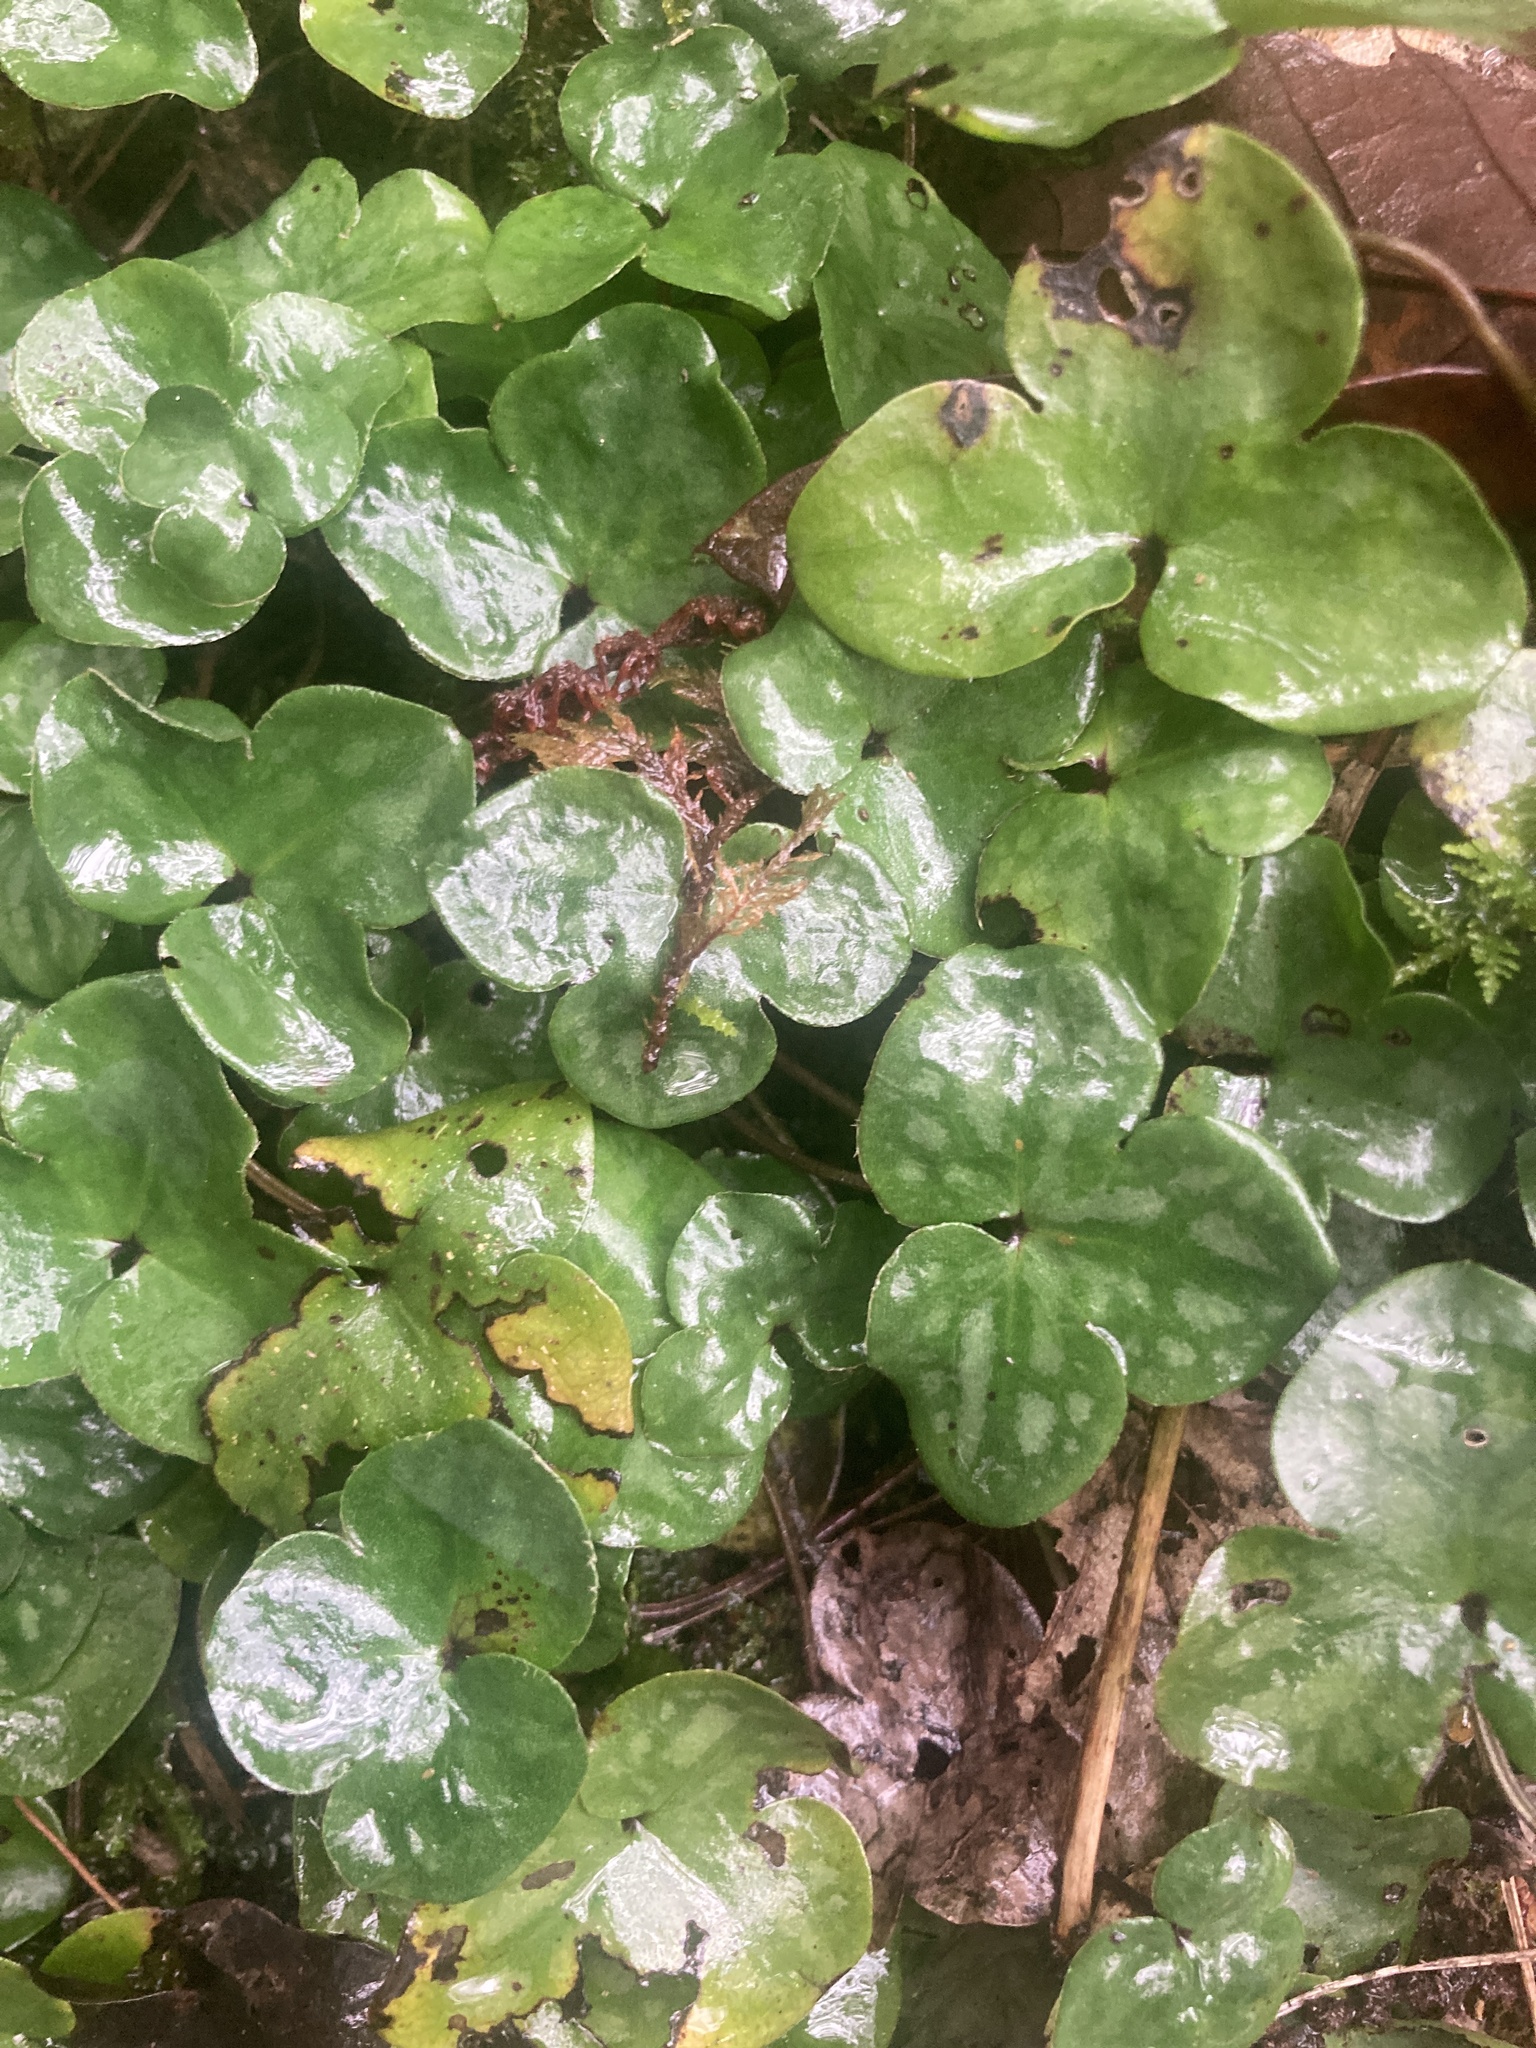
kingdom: Plantae
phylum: Tracheophyta
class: Magnoliopsida
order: Ranunculales
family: Ranunculaceae
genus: Hepatica
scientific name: Hepatica nobilis
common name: Liverleaf
